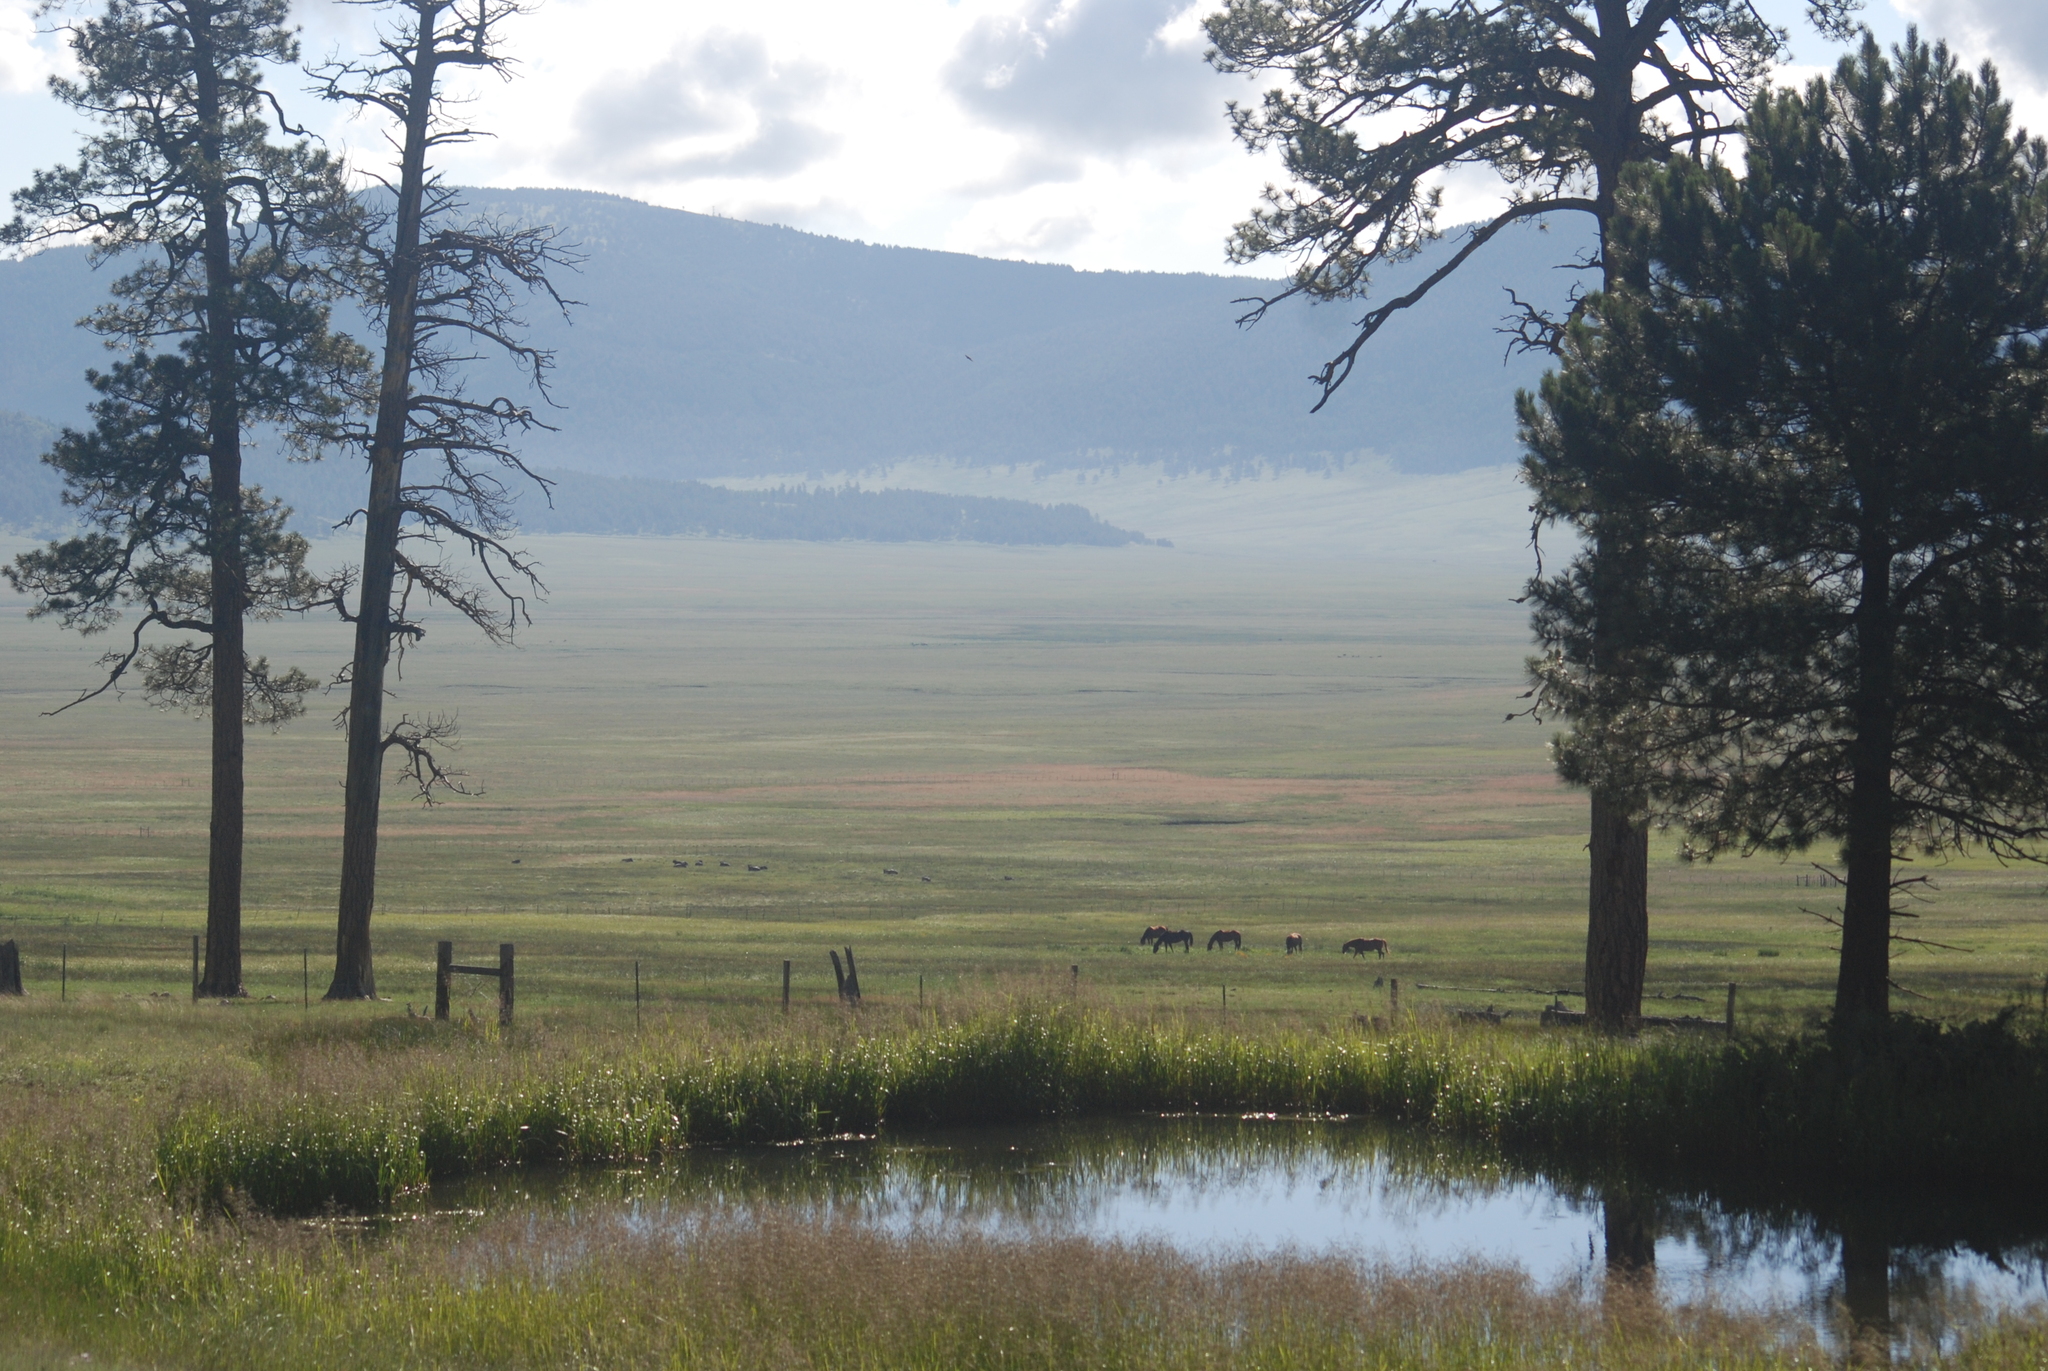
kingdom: Plantae
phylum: Tracheophyta
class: Pinopsida
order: Pinales
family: Pinaceae
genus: Pinus
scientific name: Pinus ponderosa
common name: Western yellow-pine
